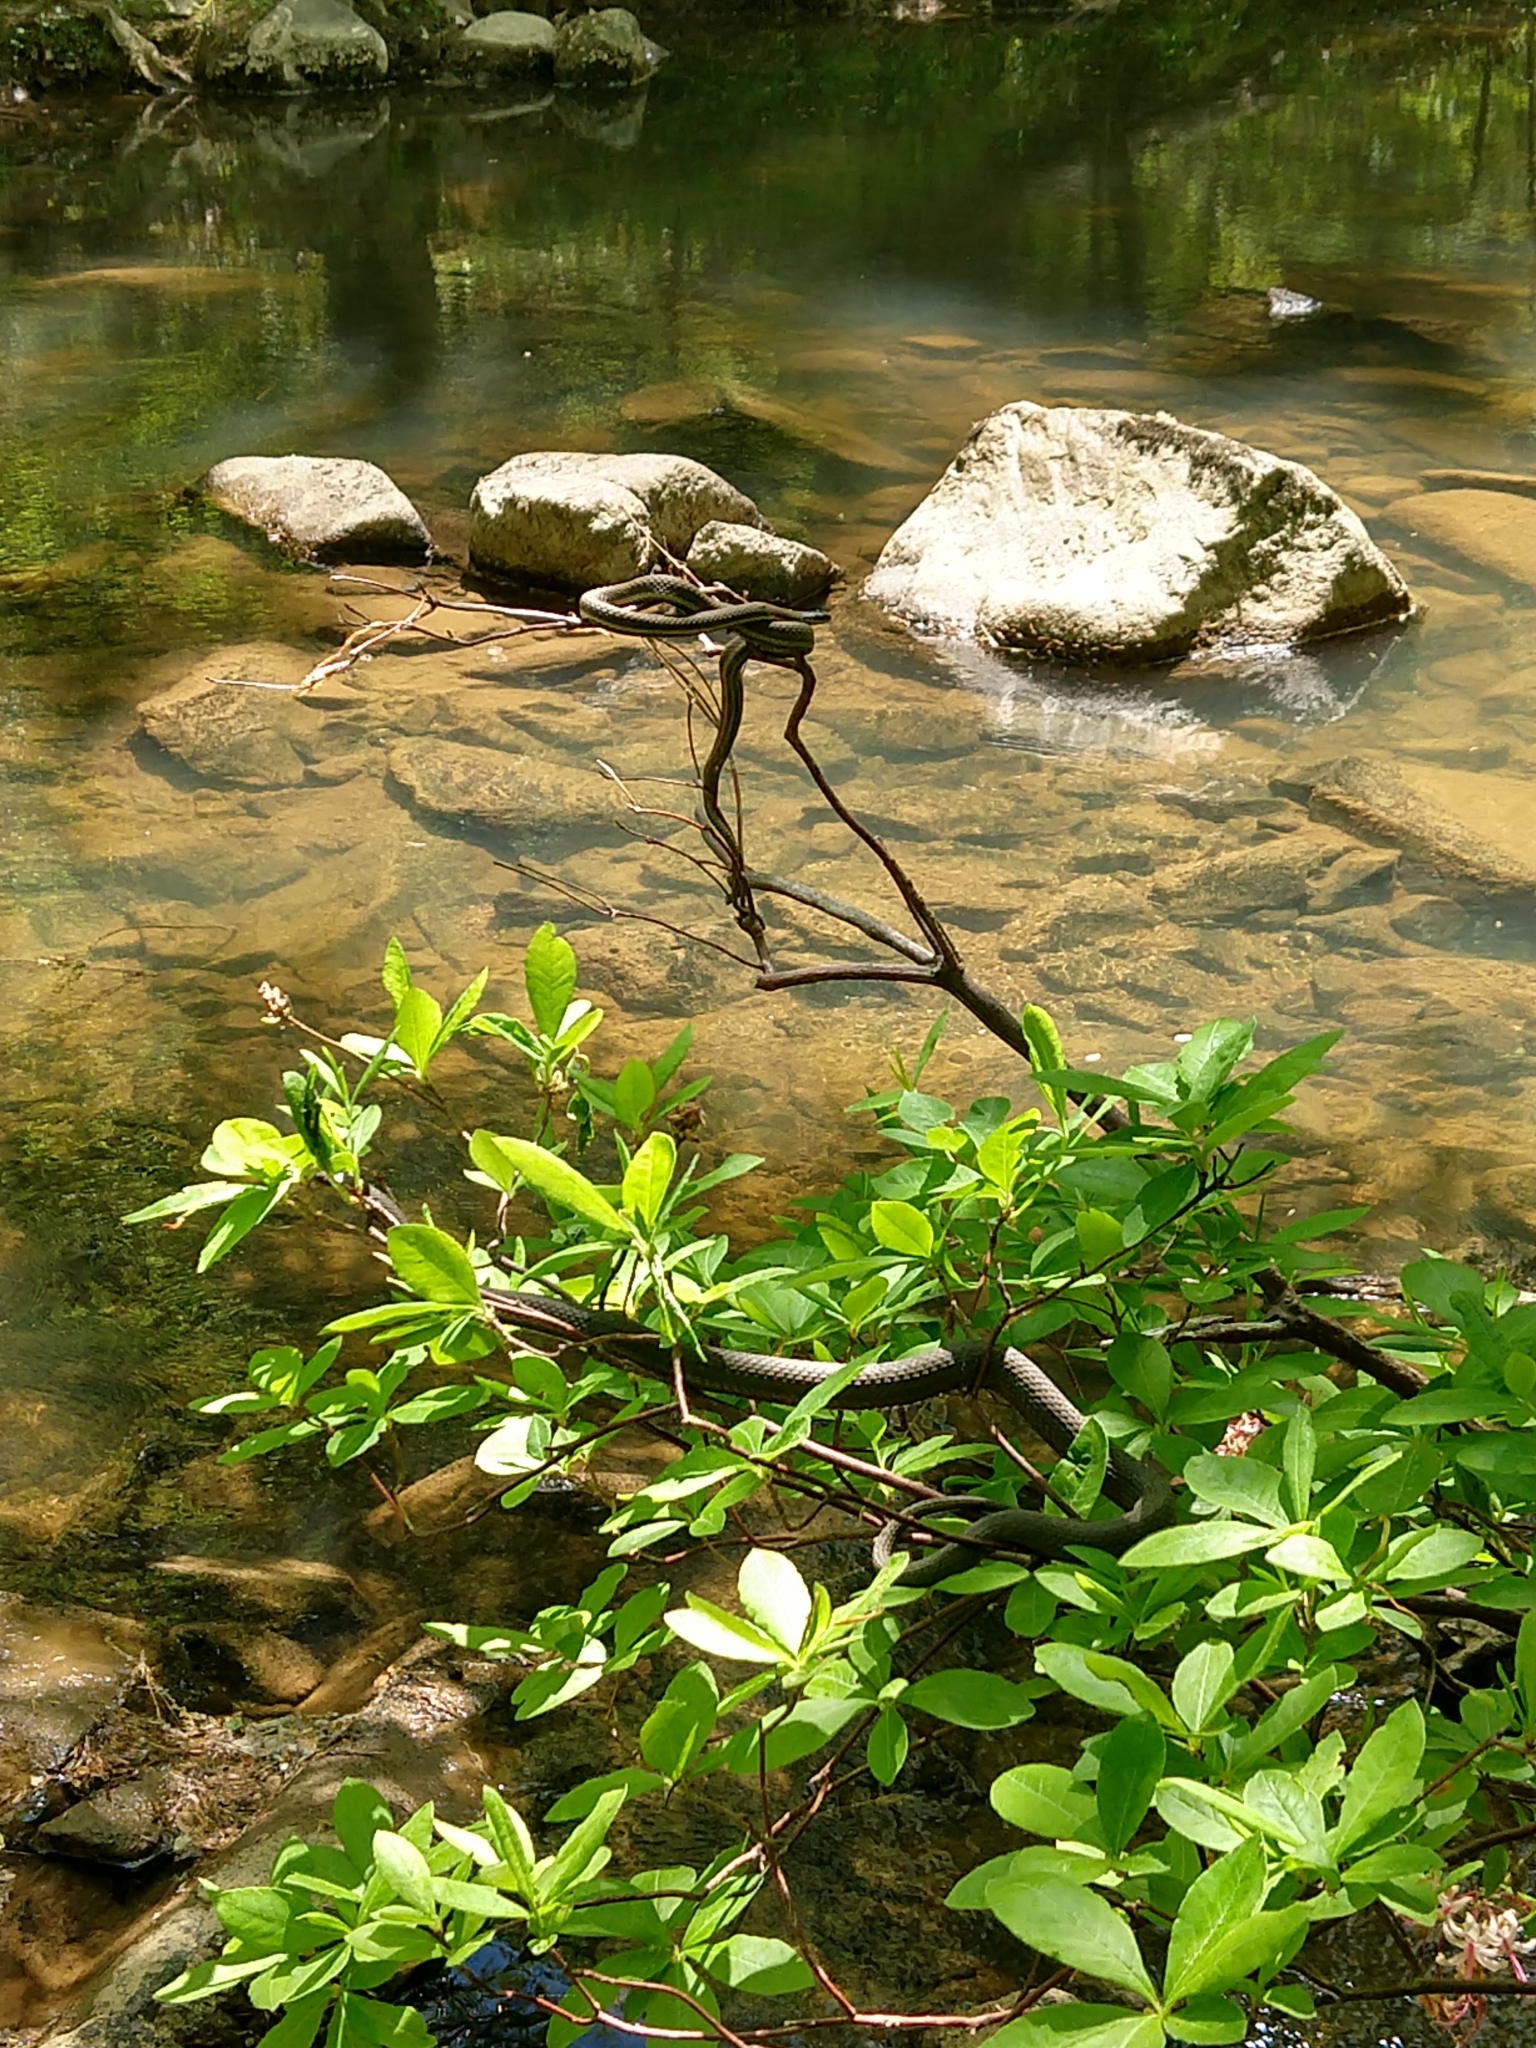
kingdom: Animalia
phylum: Chordata
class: Squamata
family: Colubridae
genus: Regina
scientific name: Regina septemvittata
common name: Queen snake
